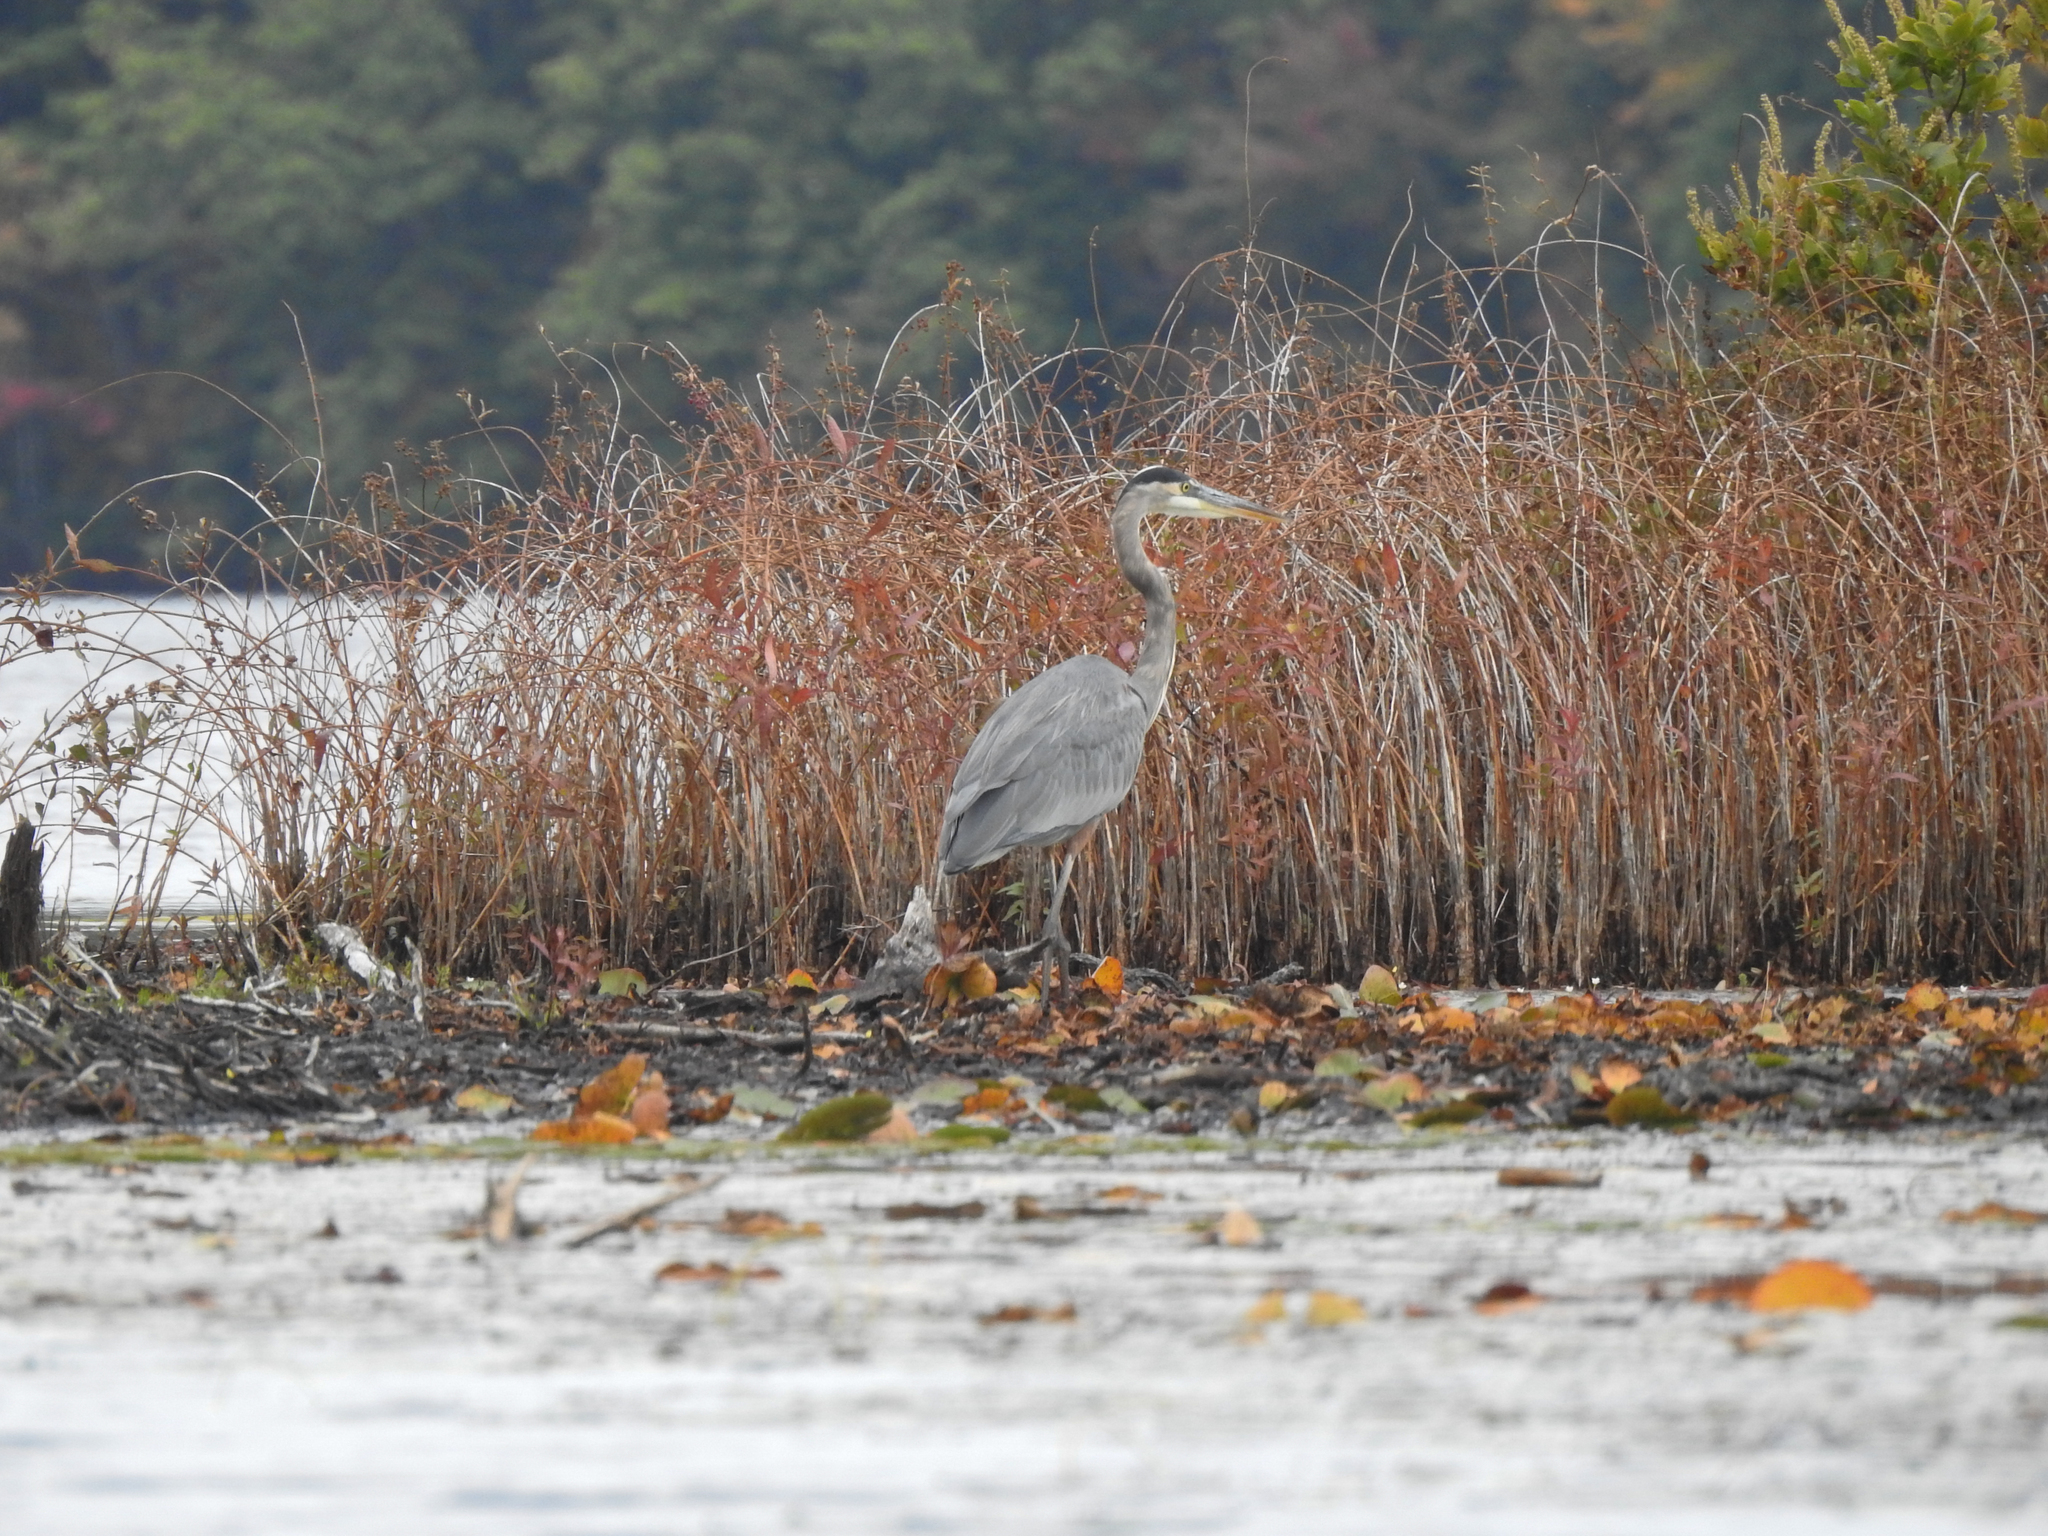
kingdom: Animalia
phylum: Chordata
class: Aves
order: Pelecaniformes
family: Ardeidae
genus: Ardea
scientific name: Ardea herodias
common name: Great blue heron
